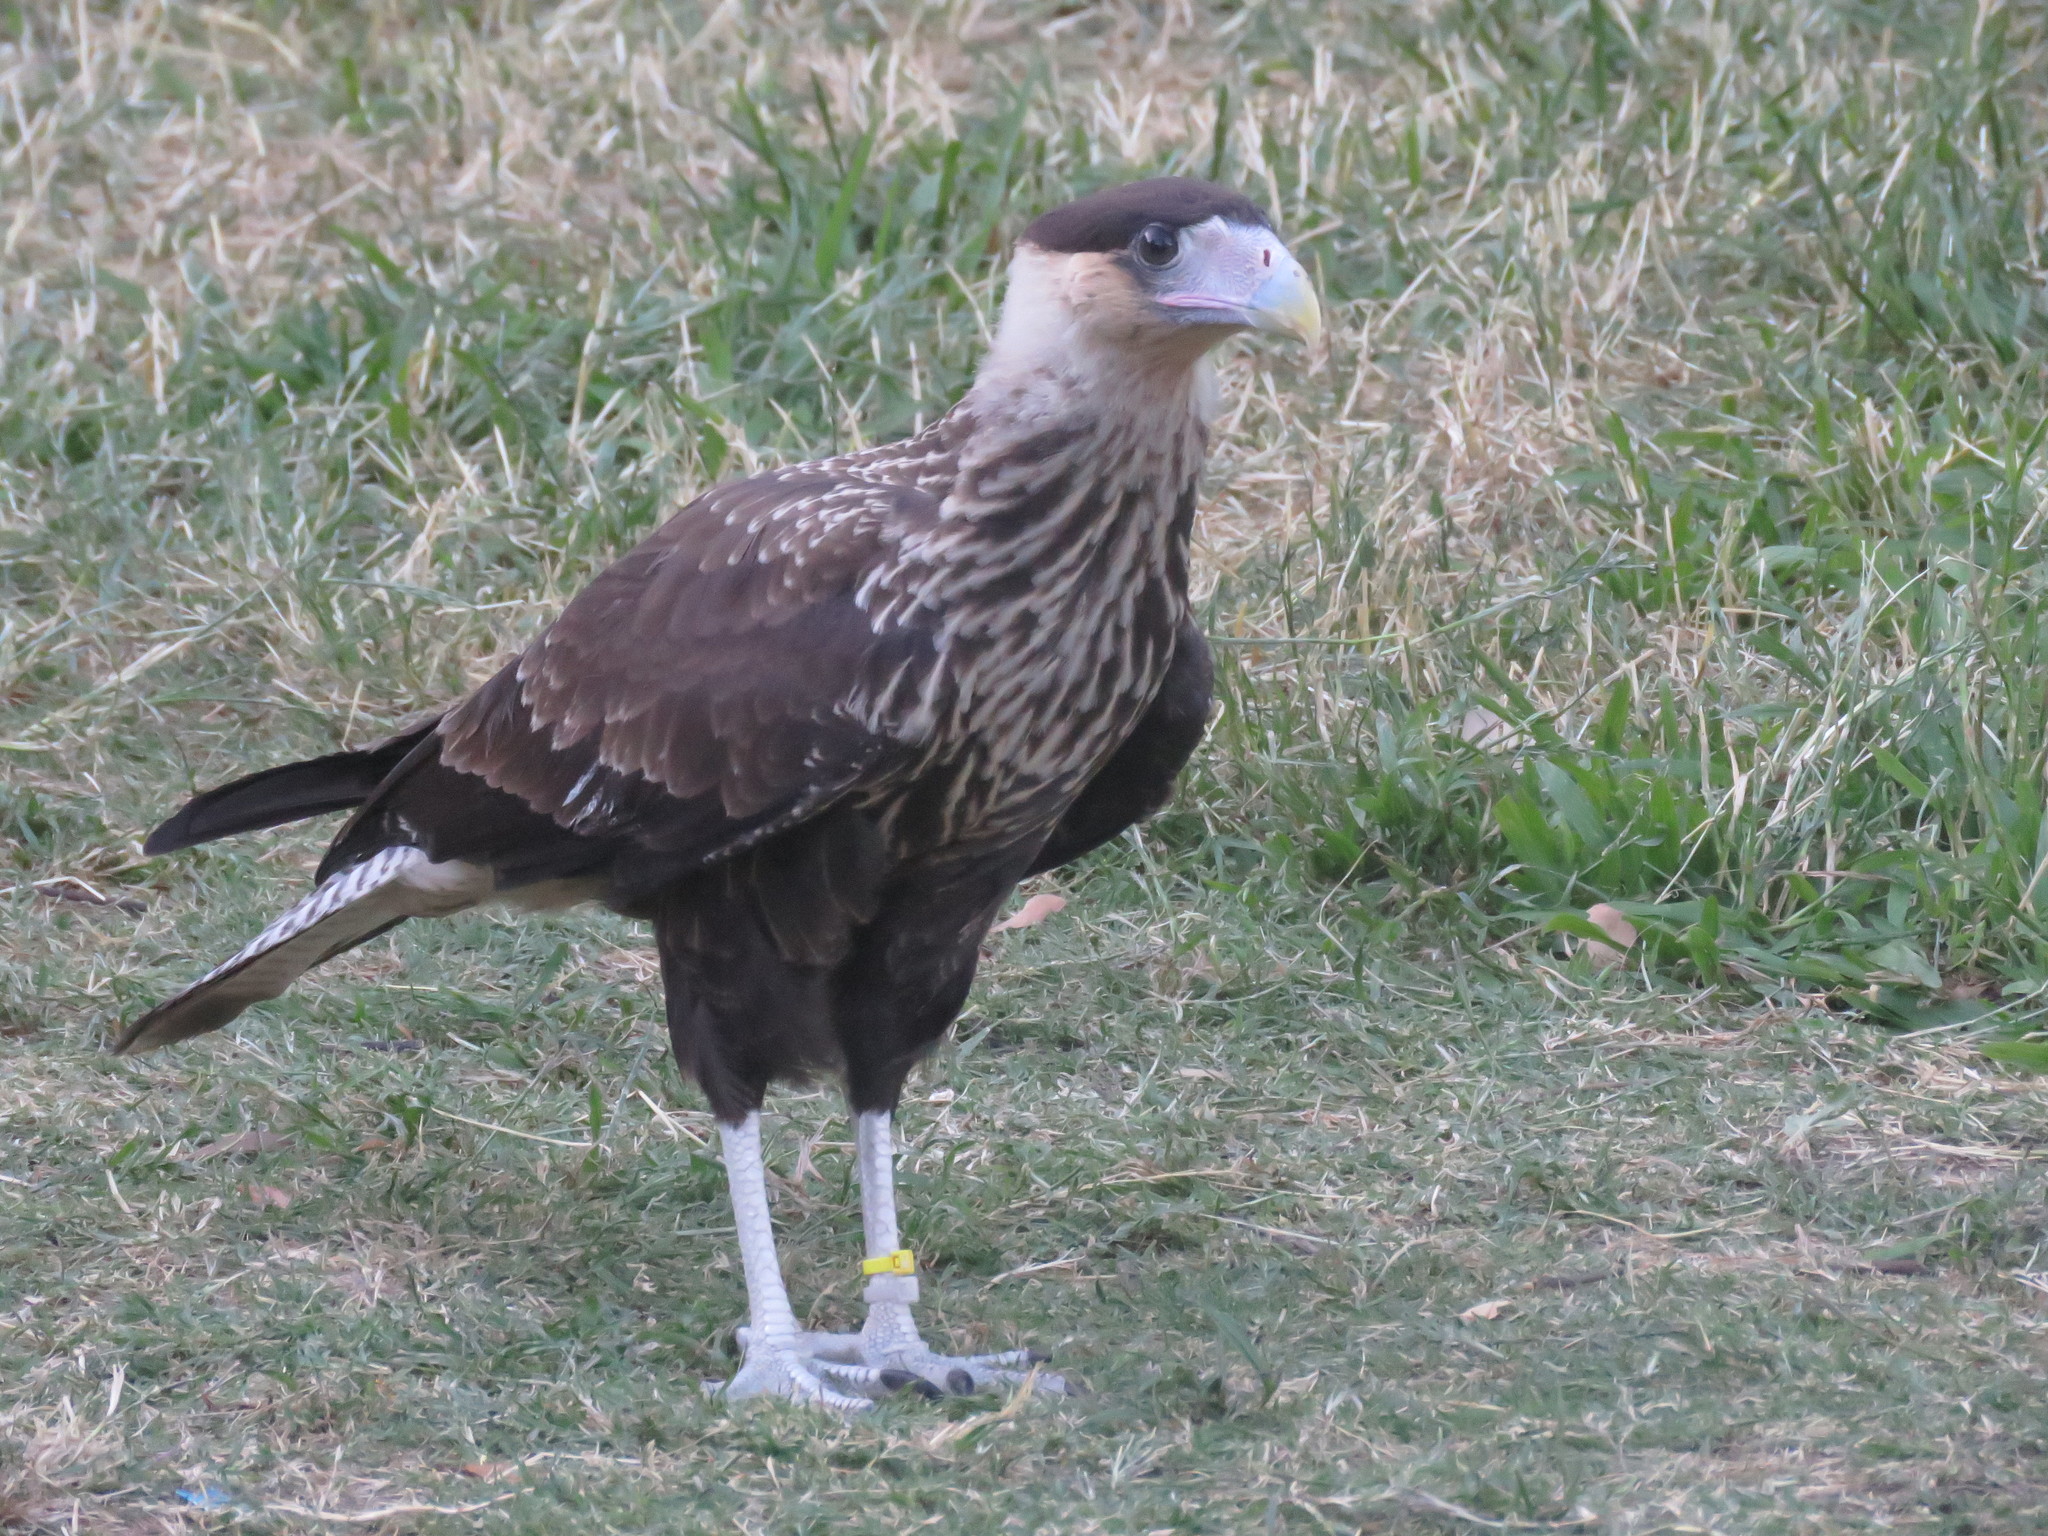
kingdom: Animalia
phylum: Chordata
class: Aves
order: Falconiformes
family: Falconidae
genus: Caracara
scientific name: Caracara plancus
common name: Southern caracara
